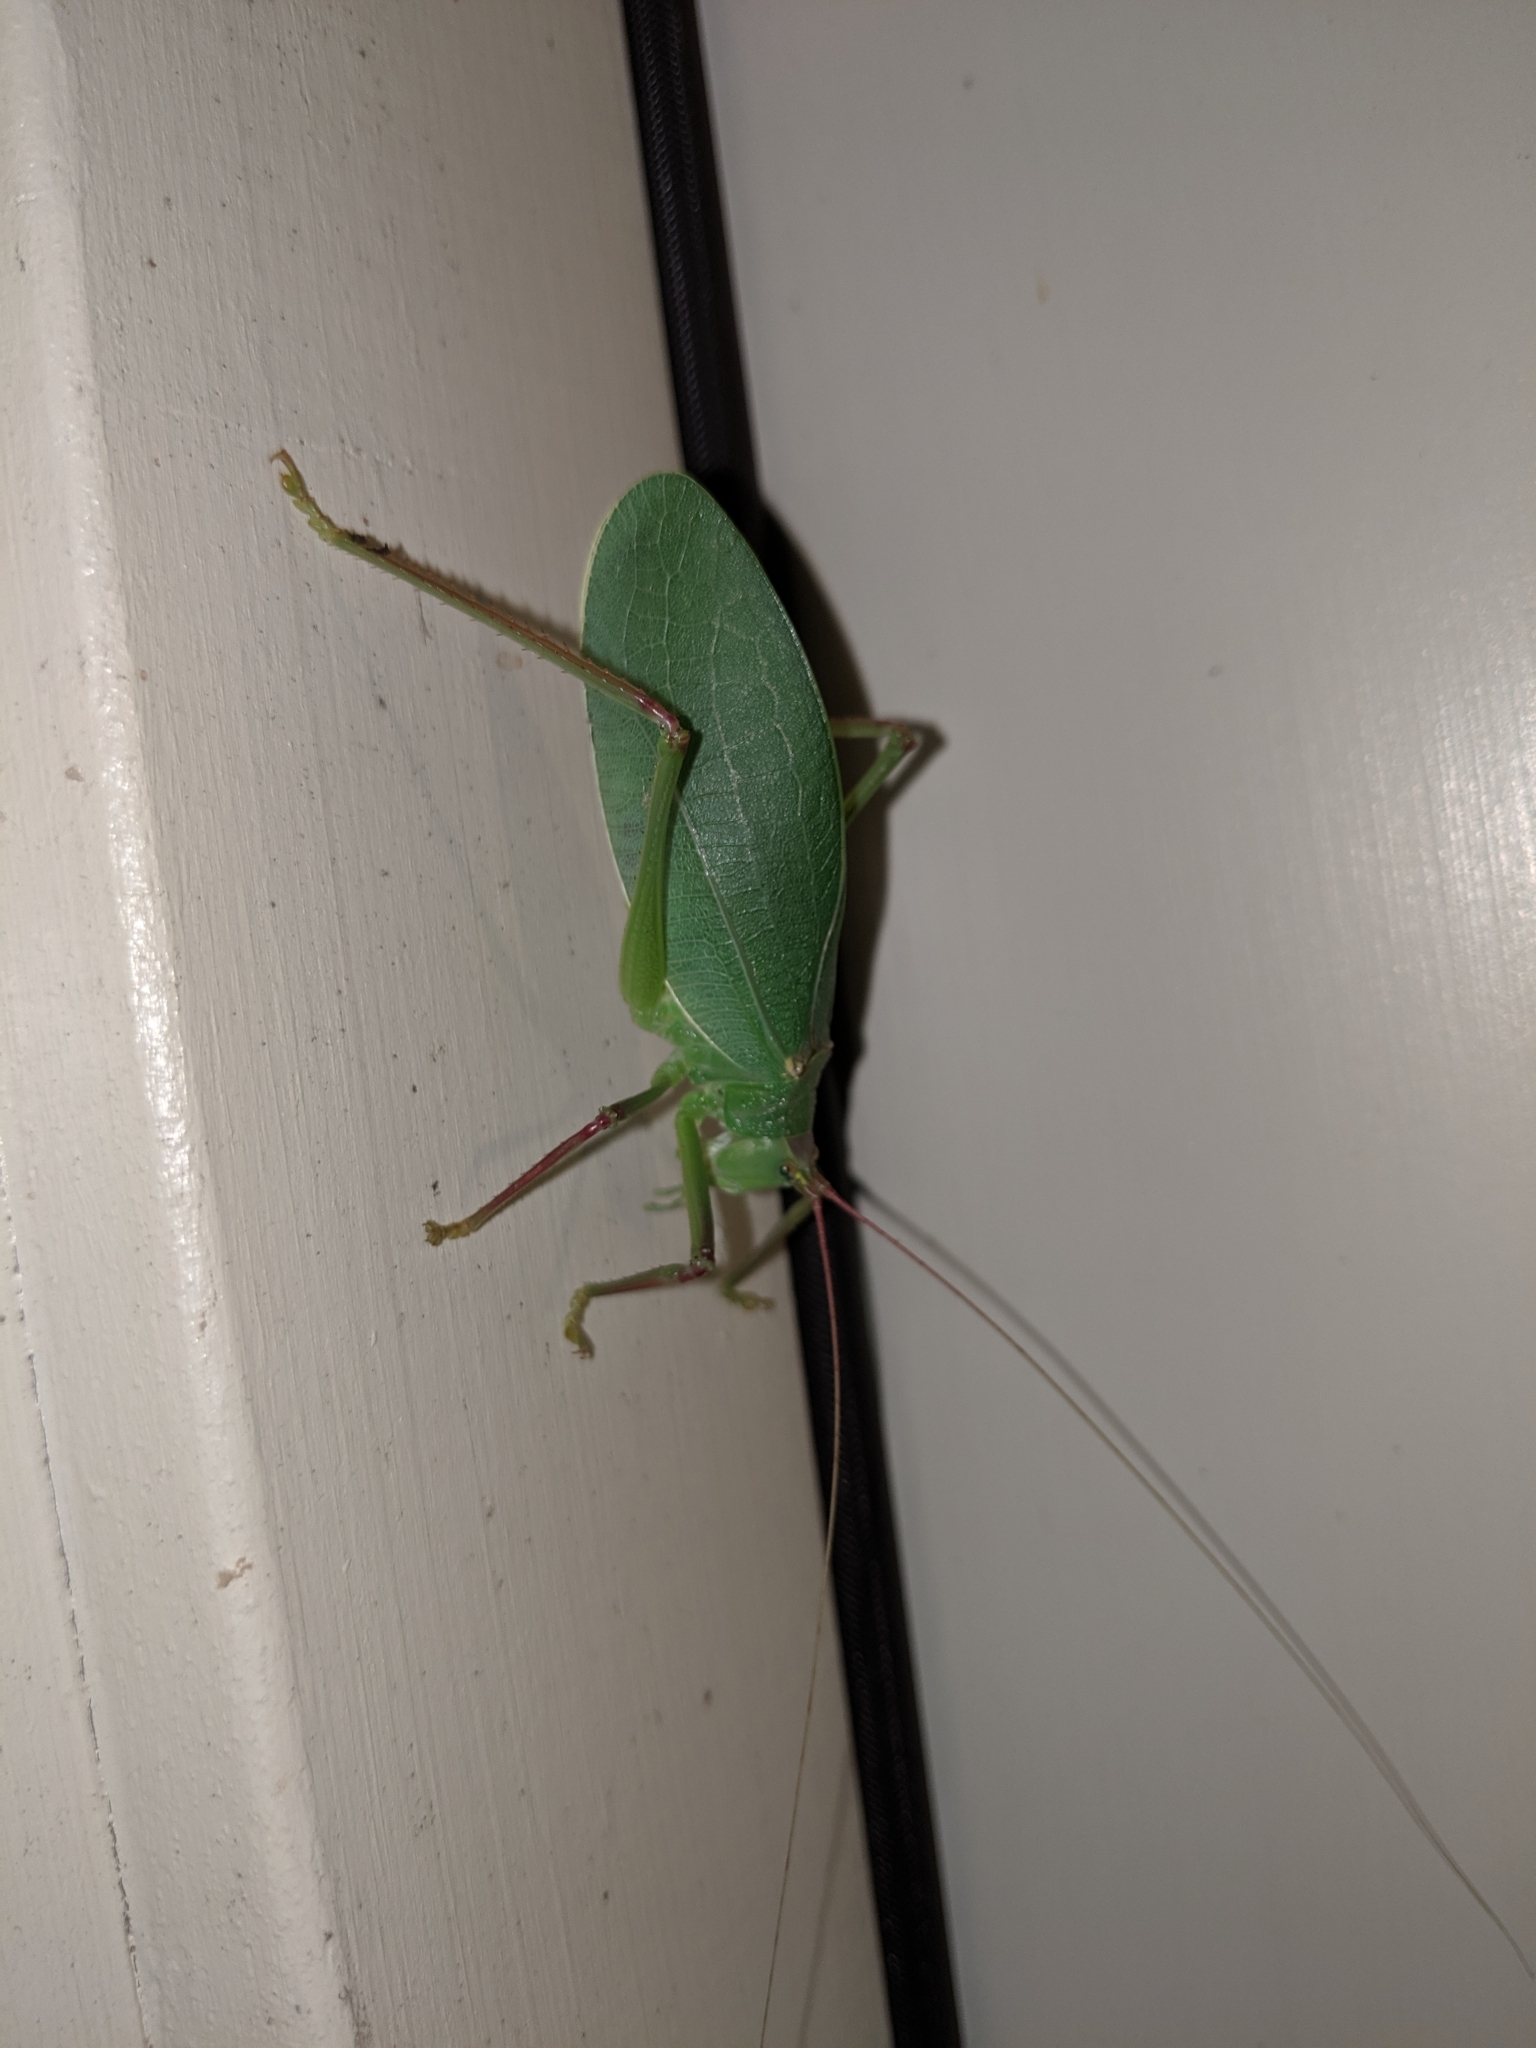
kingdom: Animalia
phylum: Arthropoda
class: Insecta
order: Orthoptera
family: Tettigoniidae
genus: Pterophylla
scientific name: Pterophylla camellifolia
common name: Common true katydid
